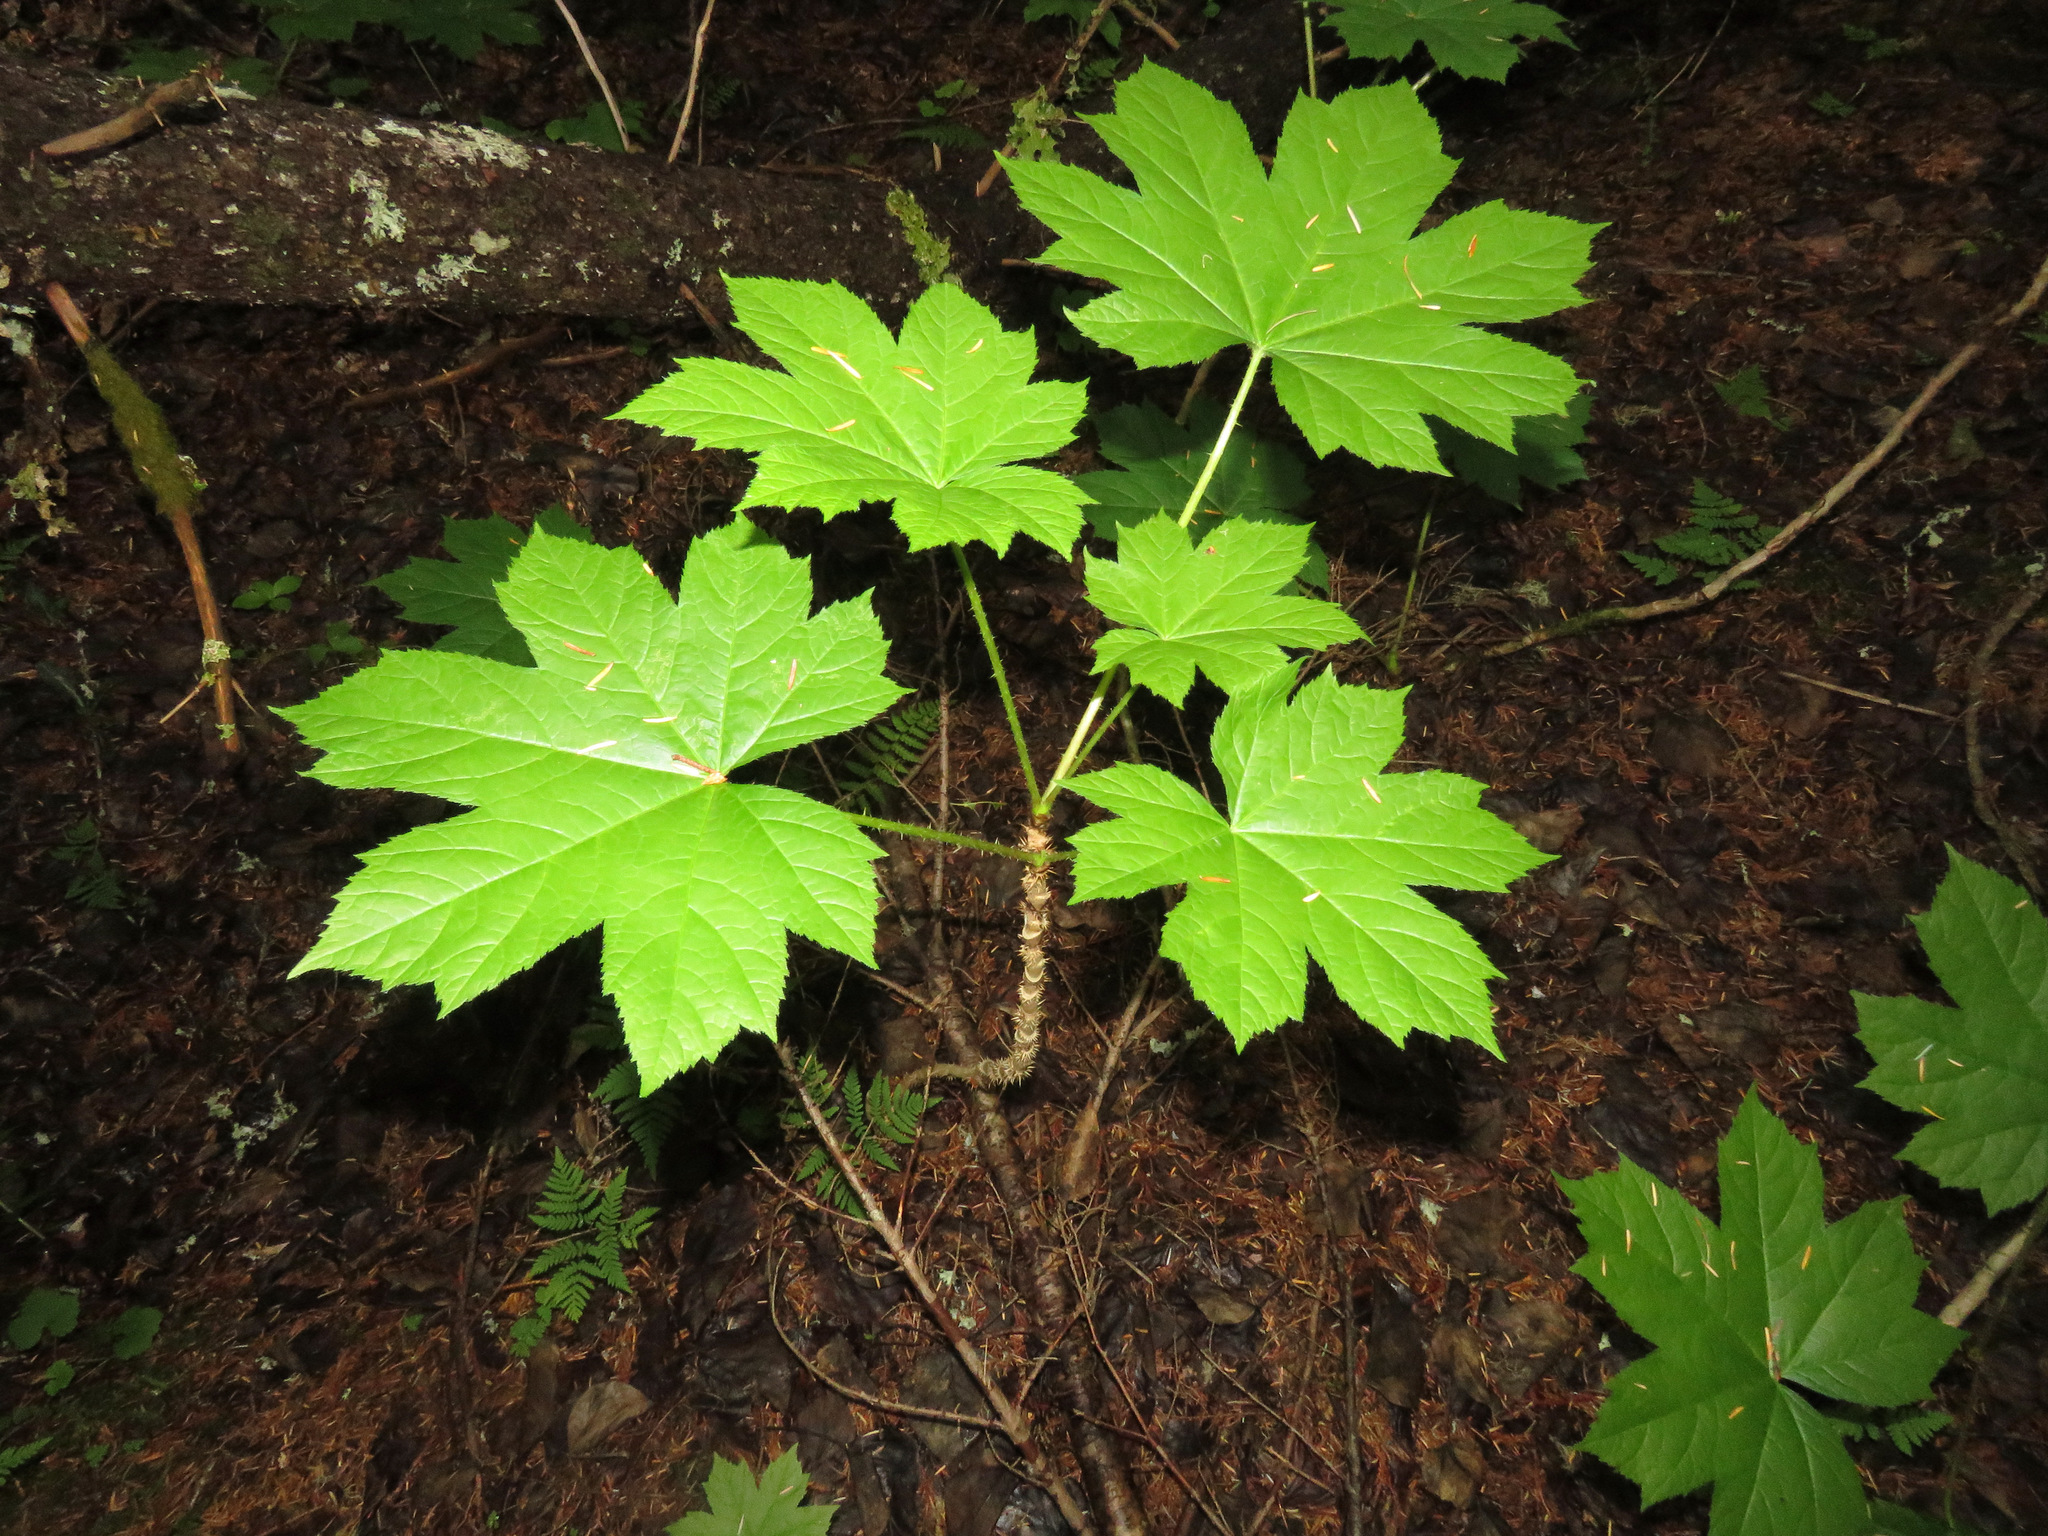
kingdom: Plantae
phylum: Tracheophyta
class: Magnoliopsida
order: Apiales
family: Araliaceae
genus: Oplopanax
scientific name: Oplopanax horridus
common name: Devil's walking-stick
